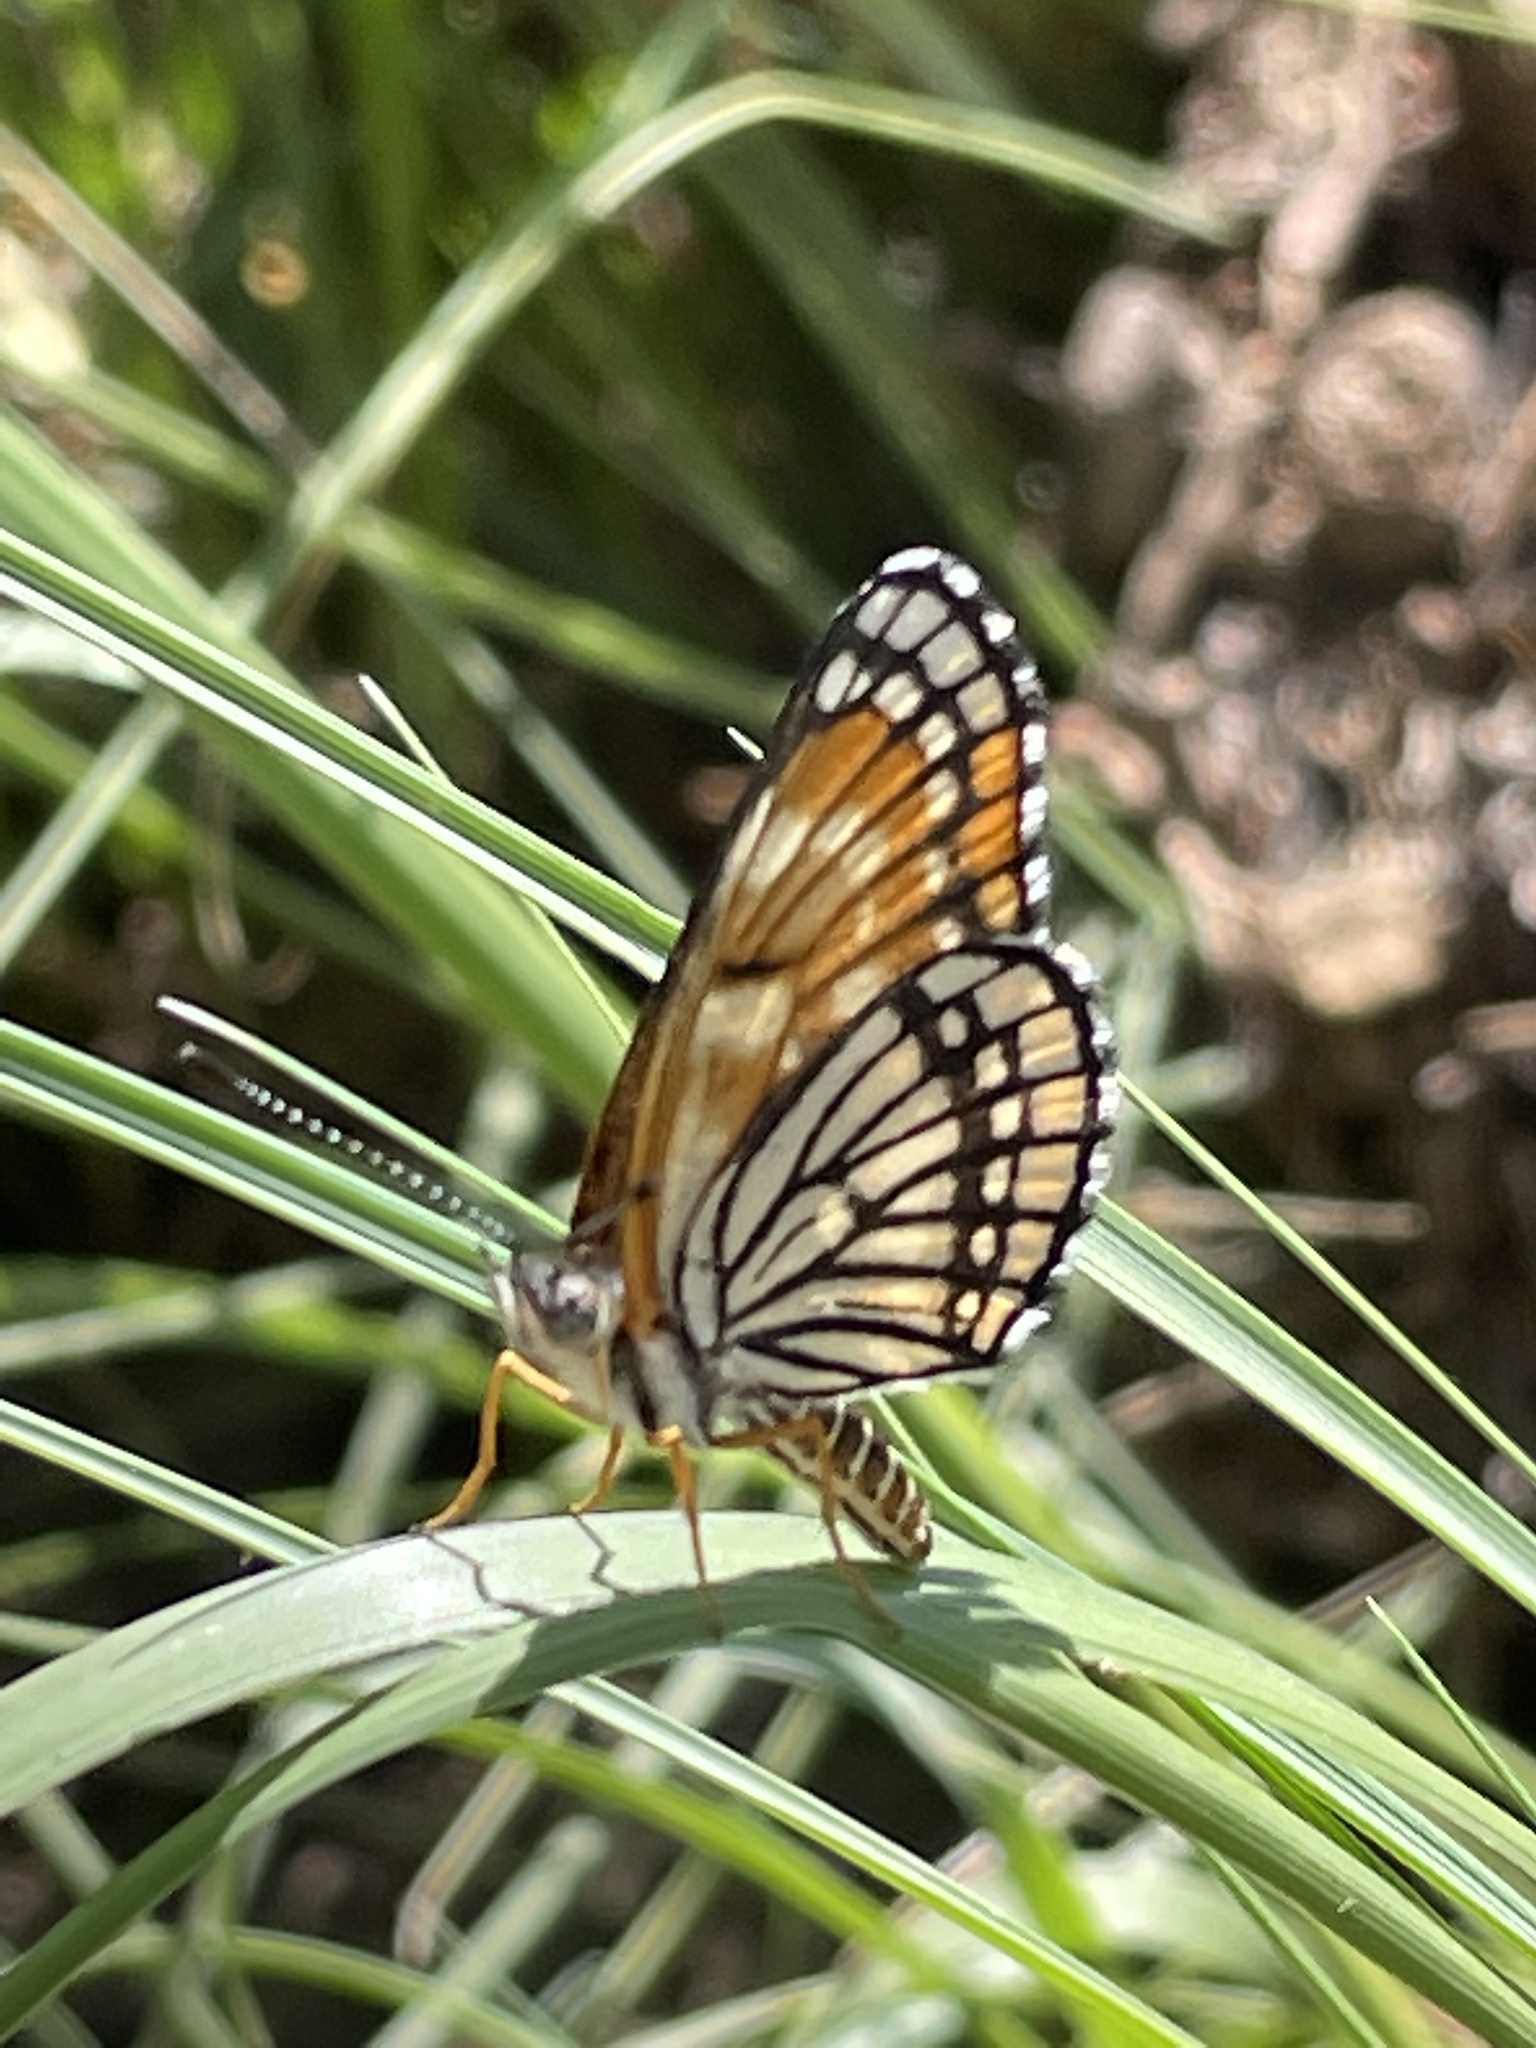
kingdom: Animalia
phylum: Arthropoda
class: Insecta
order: Lepidoptera
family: Nymphalidae
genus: Thessalia
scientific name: Thessalia leanira
